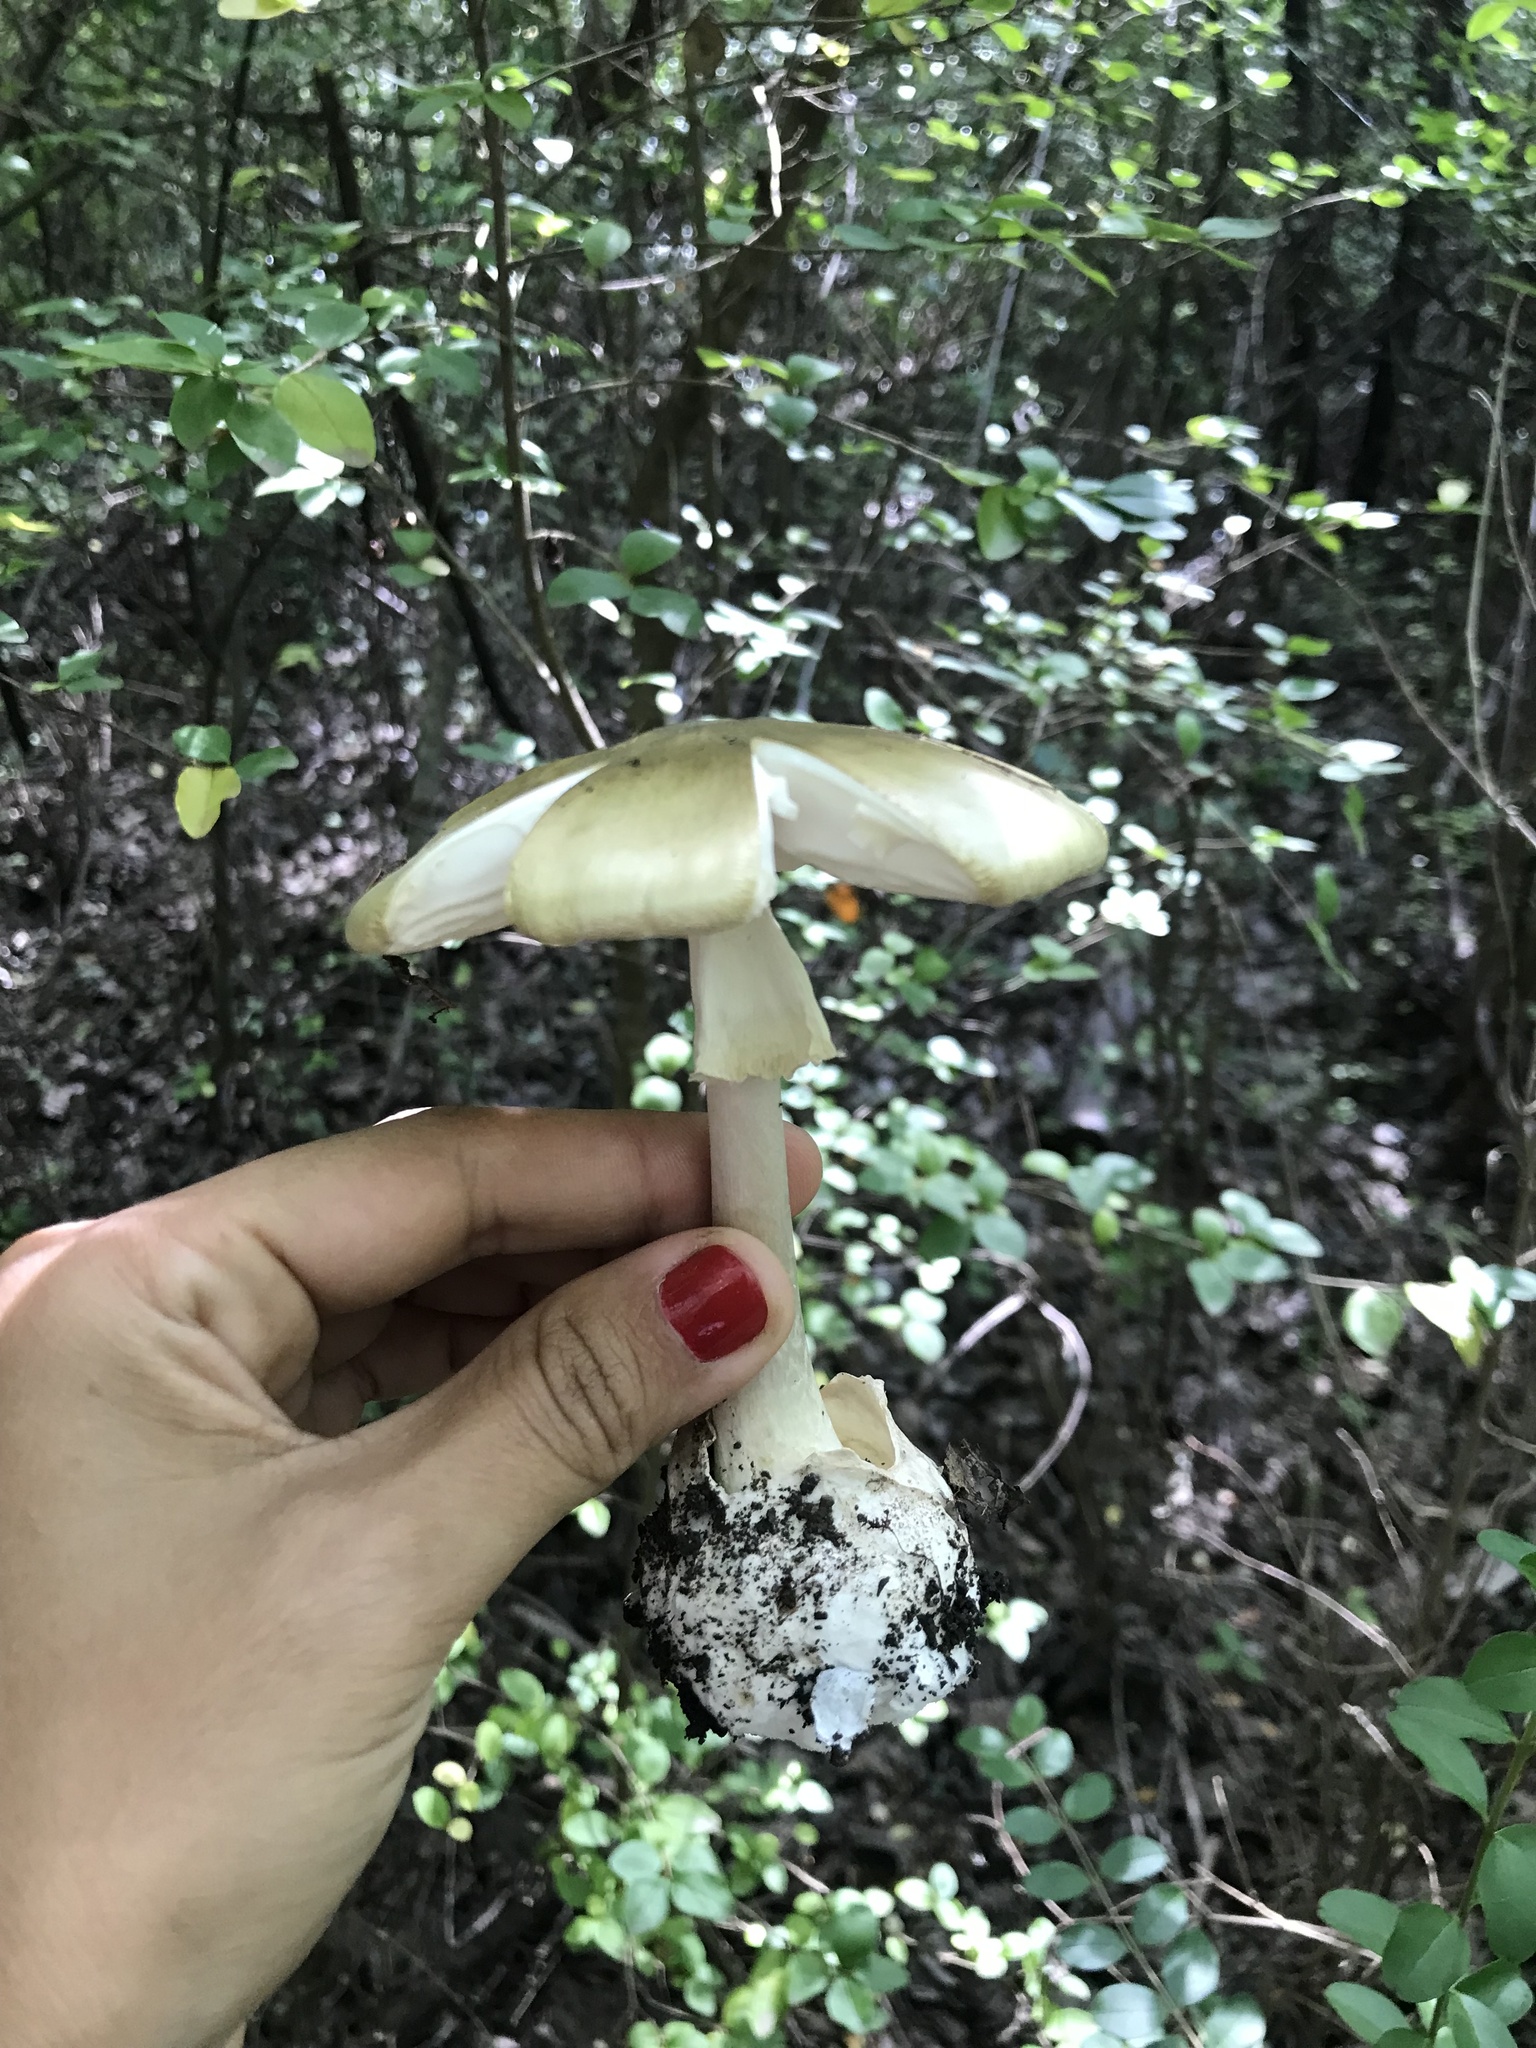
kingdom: Fungi
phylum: Basidiomycota
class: Agaricomycetes
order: Agaricales
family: Amanitaceae
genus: Amanita
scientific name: Amanita phalloides
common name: Death cap
